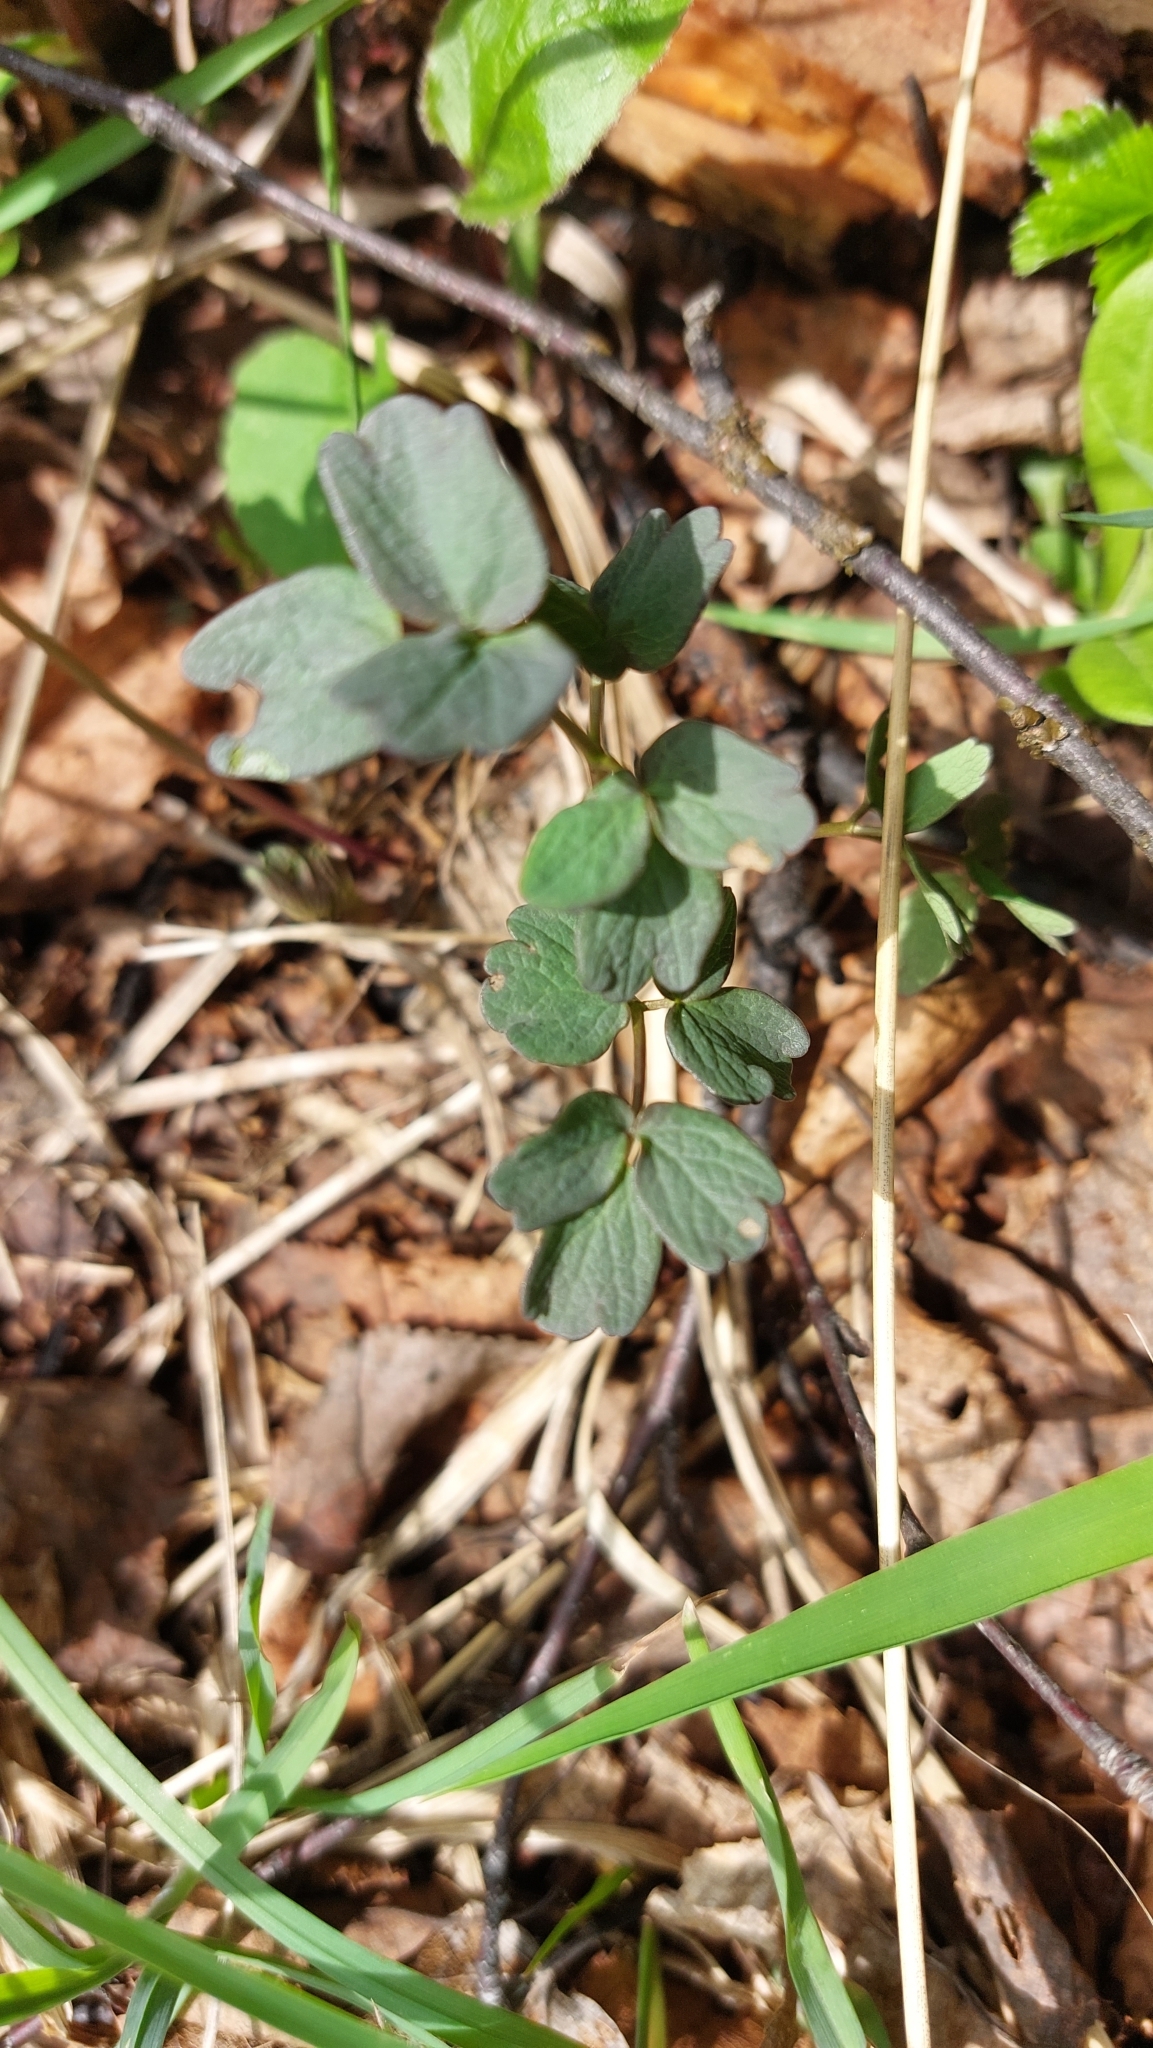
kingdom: Plantae
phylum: Tracheophyta
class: Magnoliopsida
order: Ranunculales
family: Ranunculaceae
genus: Thalictrum
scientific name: Thalictrum minus
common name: Lesser meadow-rue
